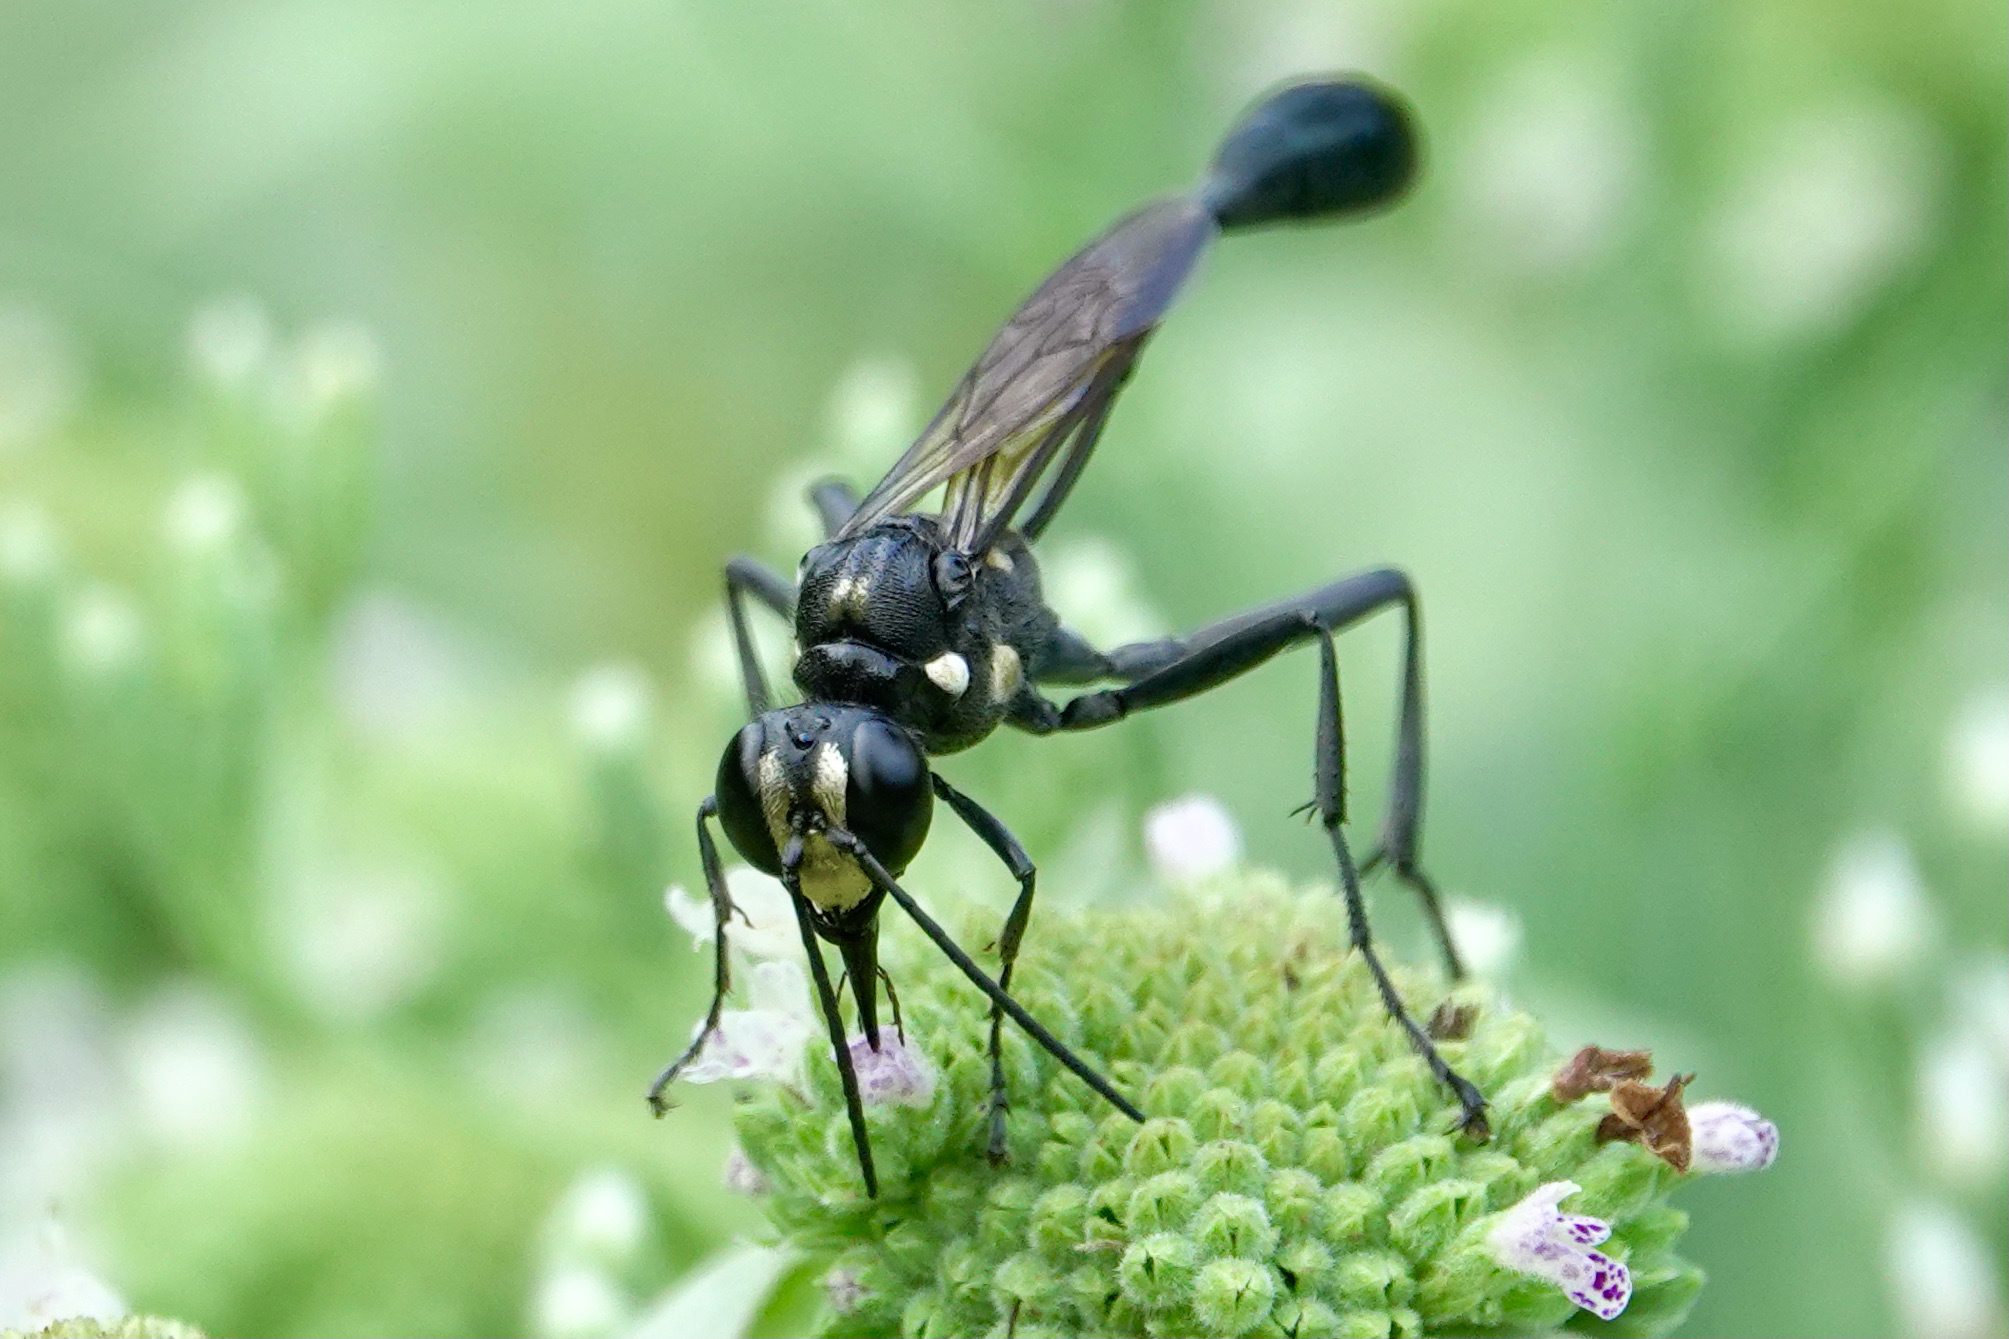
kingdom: Animalia
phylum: Arthropoda
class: Insecta
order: Hymenoptera
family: Sphecidae
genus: Eremnophila
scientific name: Eremnophila aureonotata
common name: Gold-marked thread-waisted wasp
